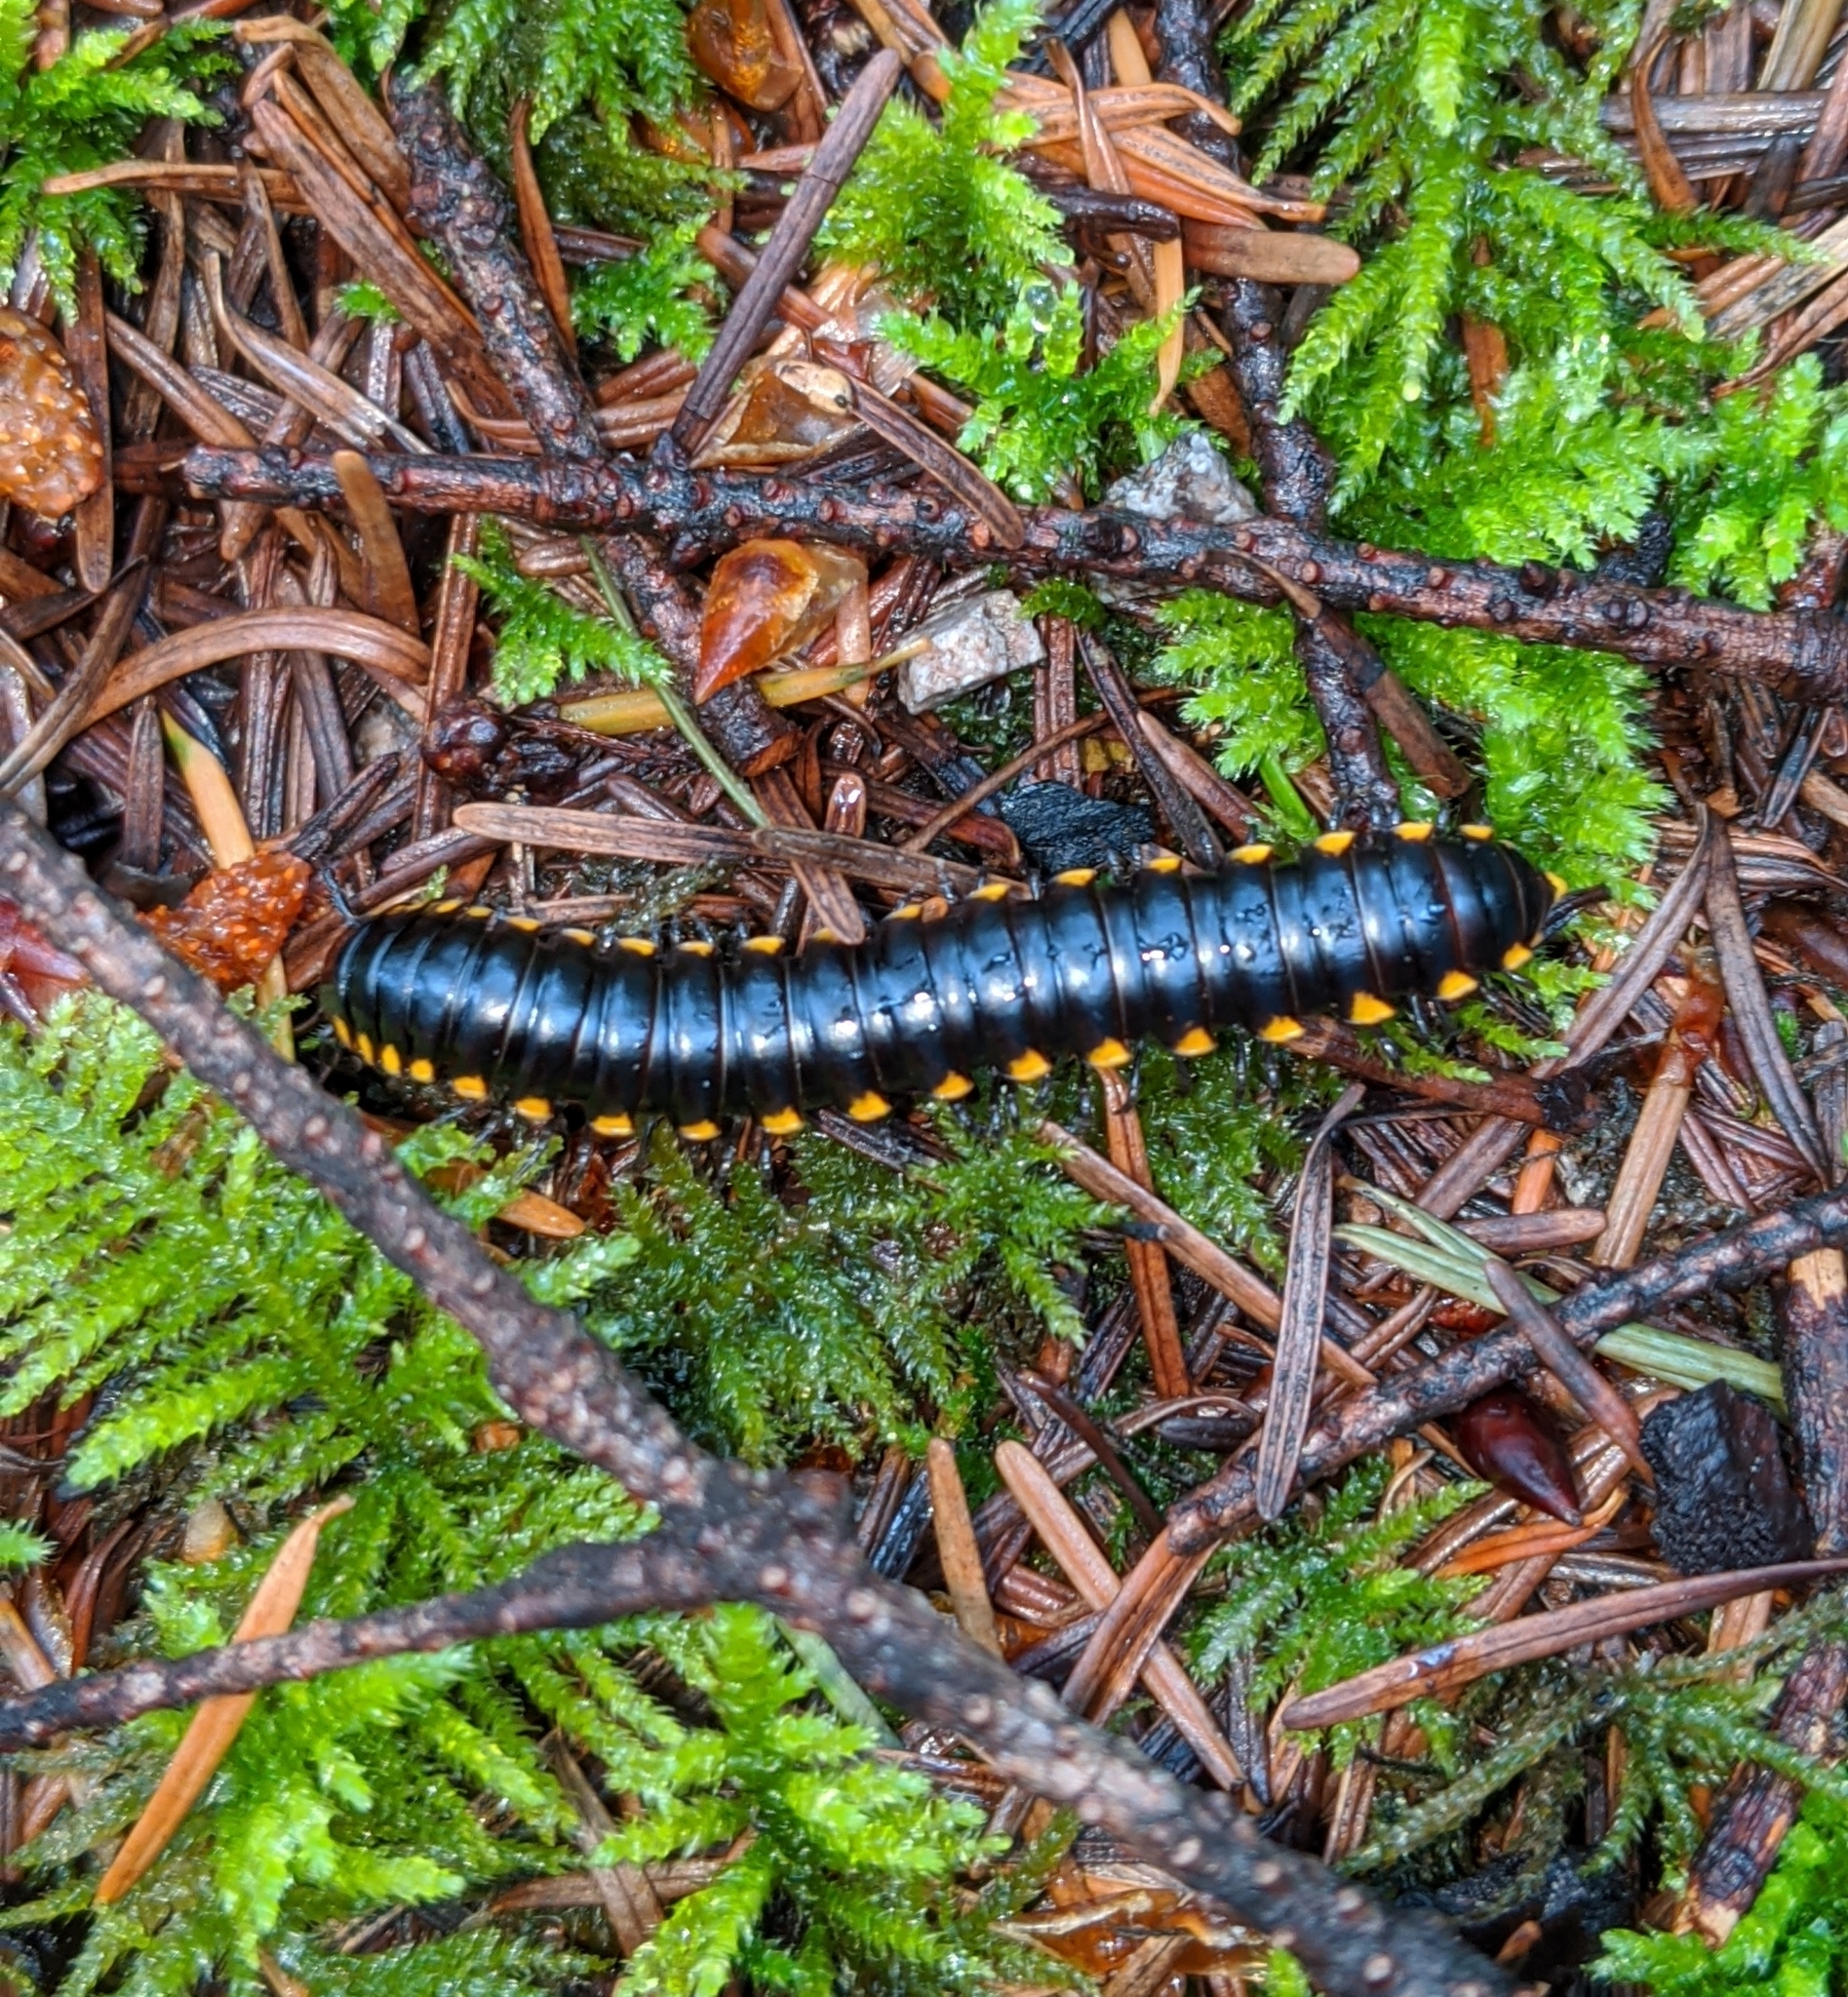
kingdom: Animalia
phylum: Arthropoda
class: Diplopoda
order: Polydesmida
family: Xystodesmidae
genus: Harpaphe
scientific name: Harpaphe haydeniana
